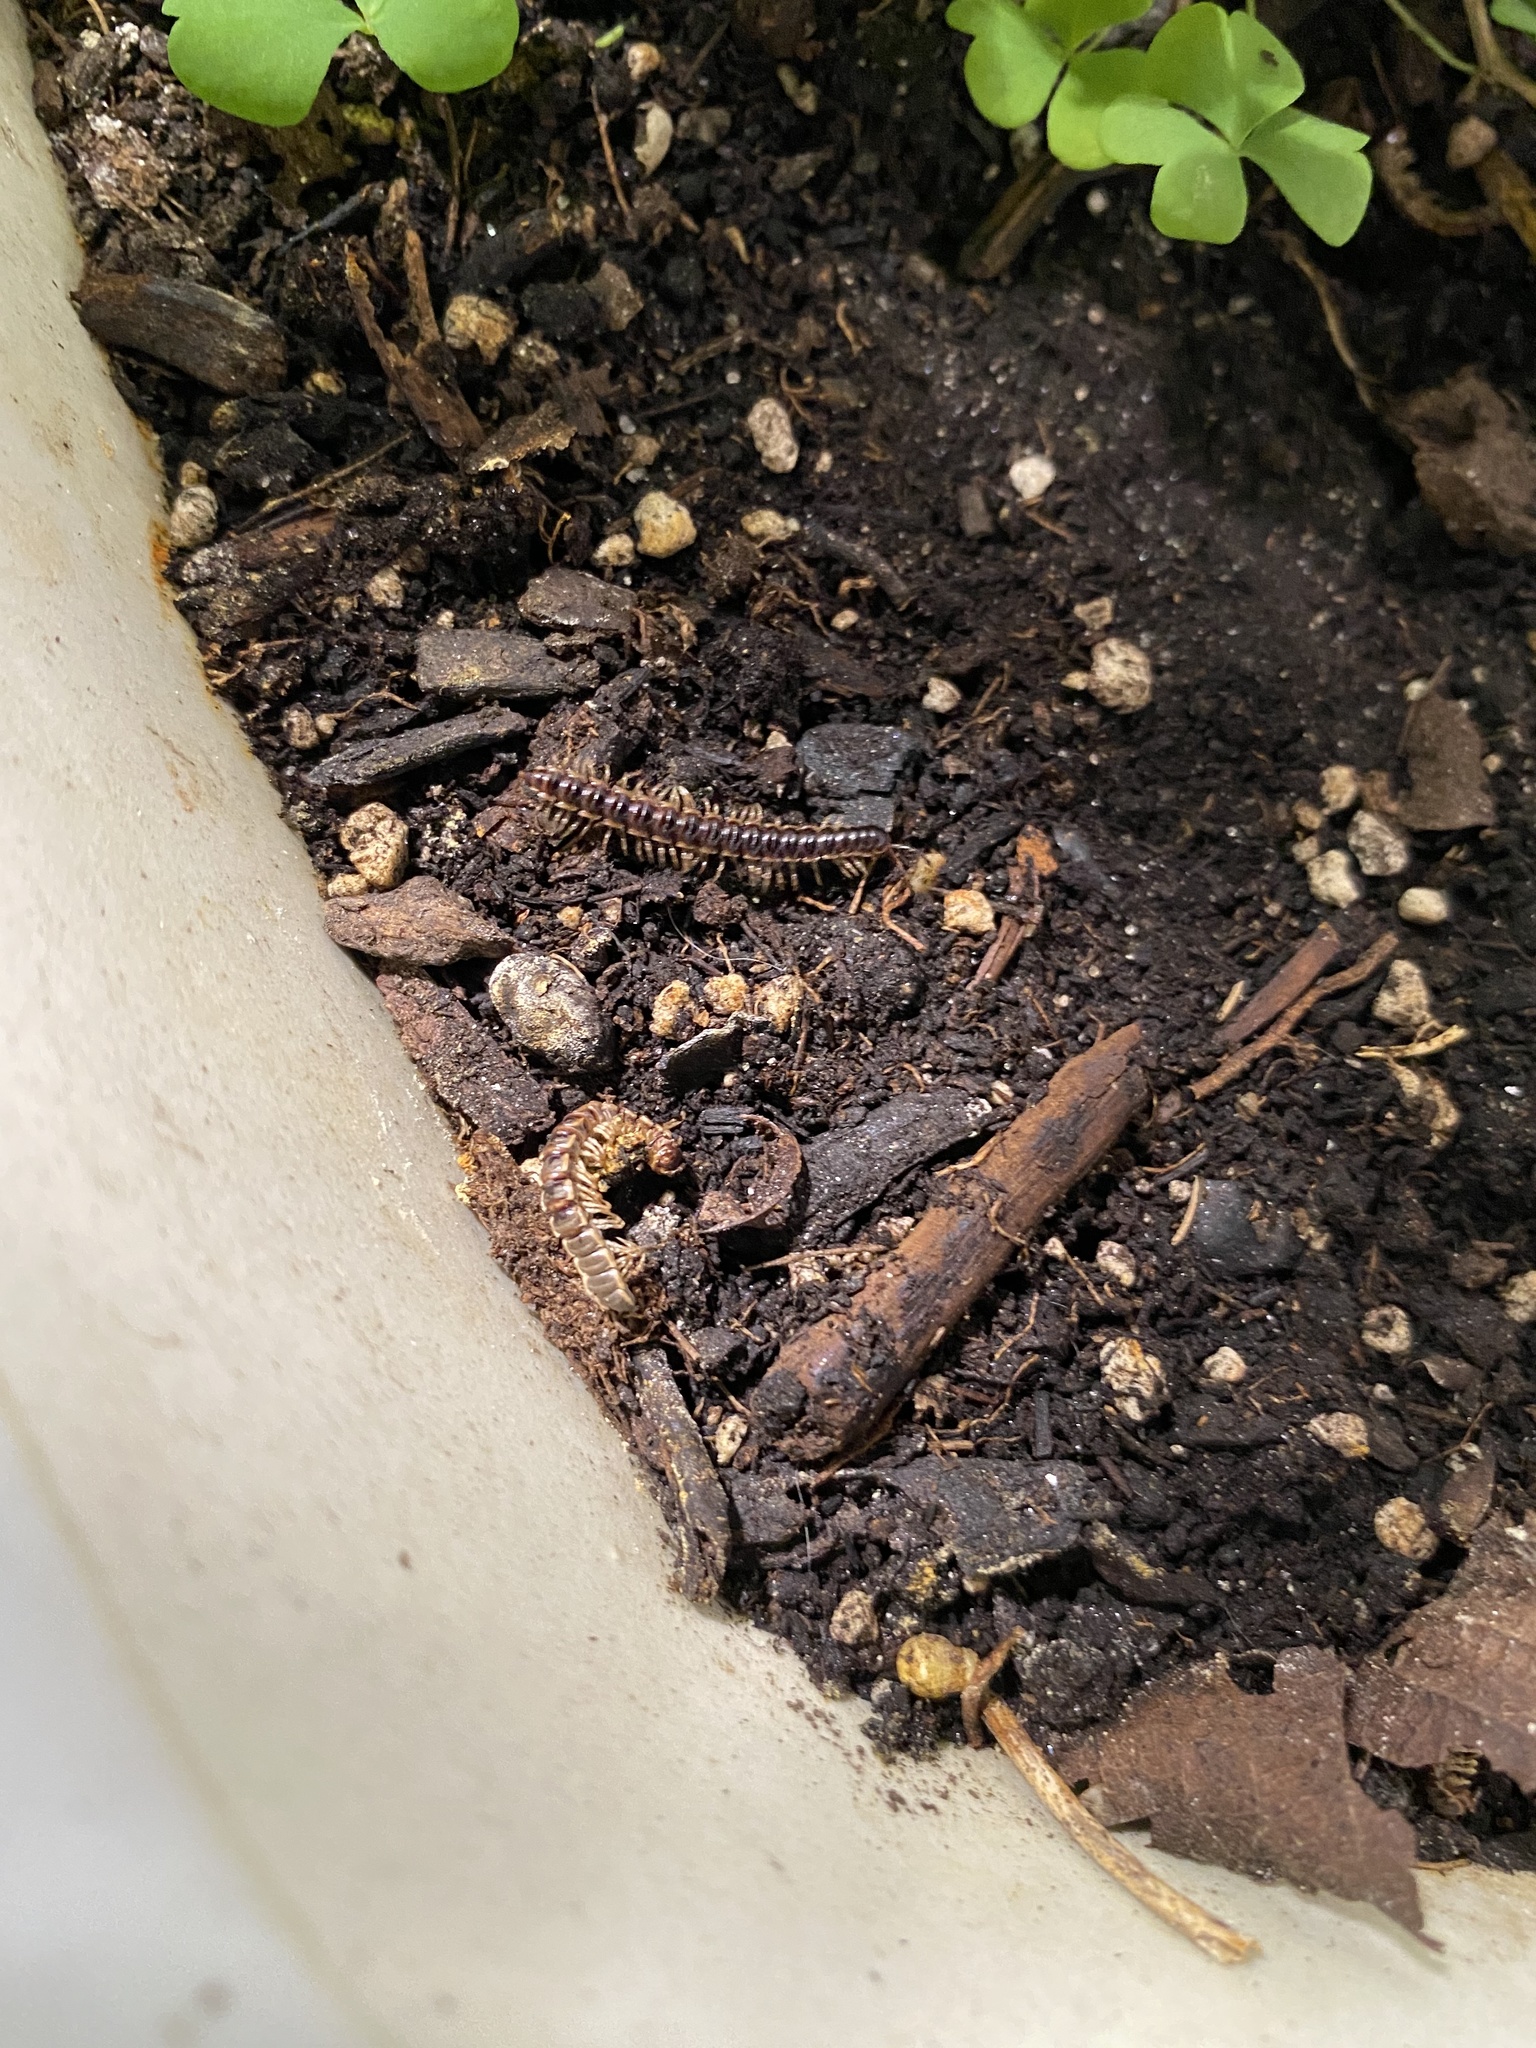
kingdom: Animalia
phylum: Arthropoda
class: Diplopoda
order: Polydesmida
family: Paradoxosomatidae
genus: Oxidus
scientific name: Oxidus gracilis
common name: Greenhouse millipede
